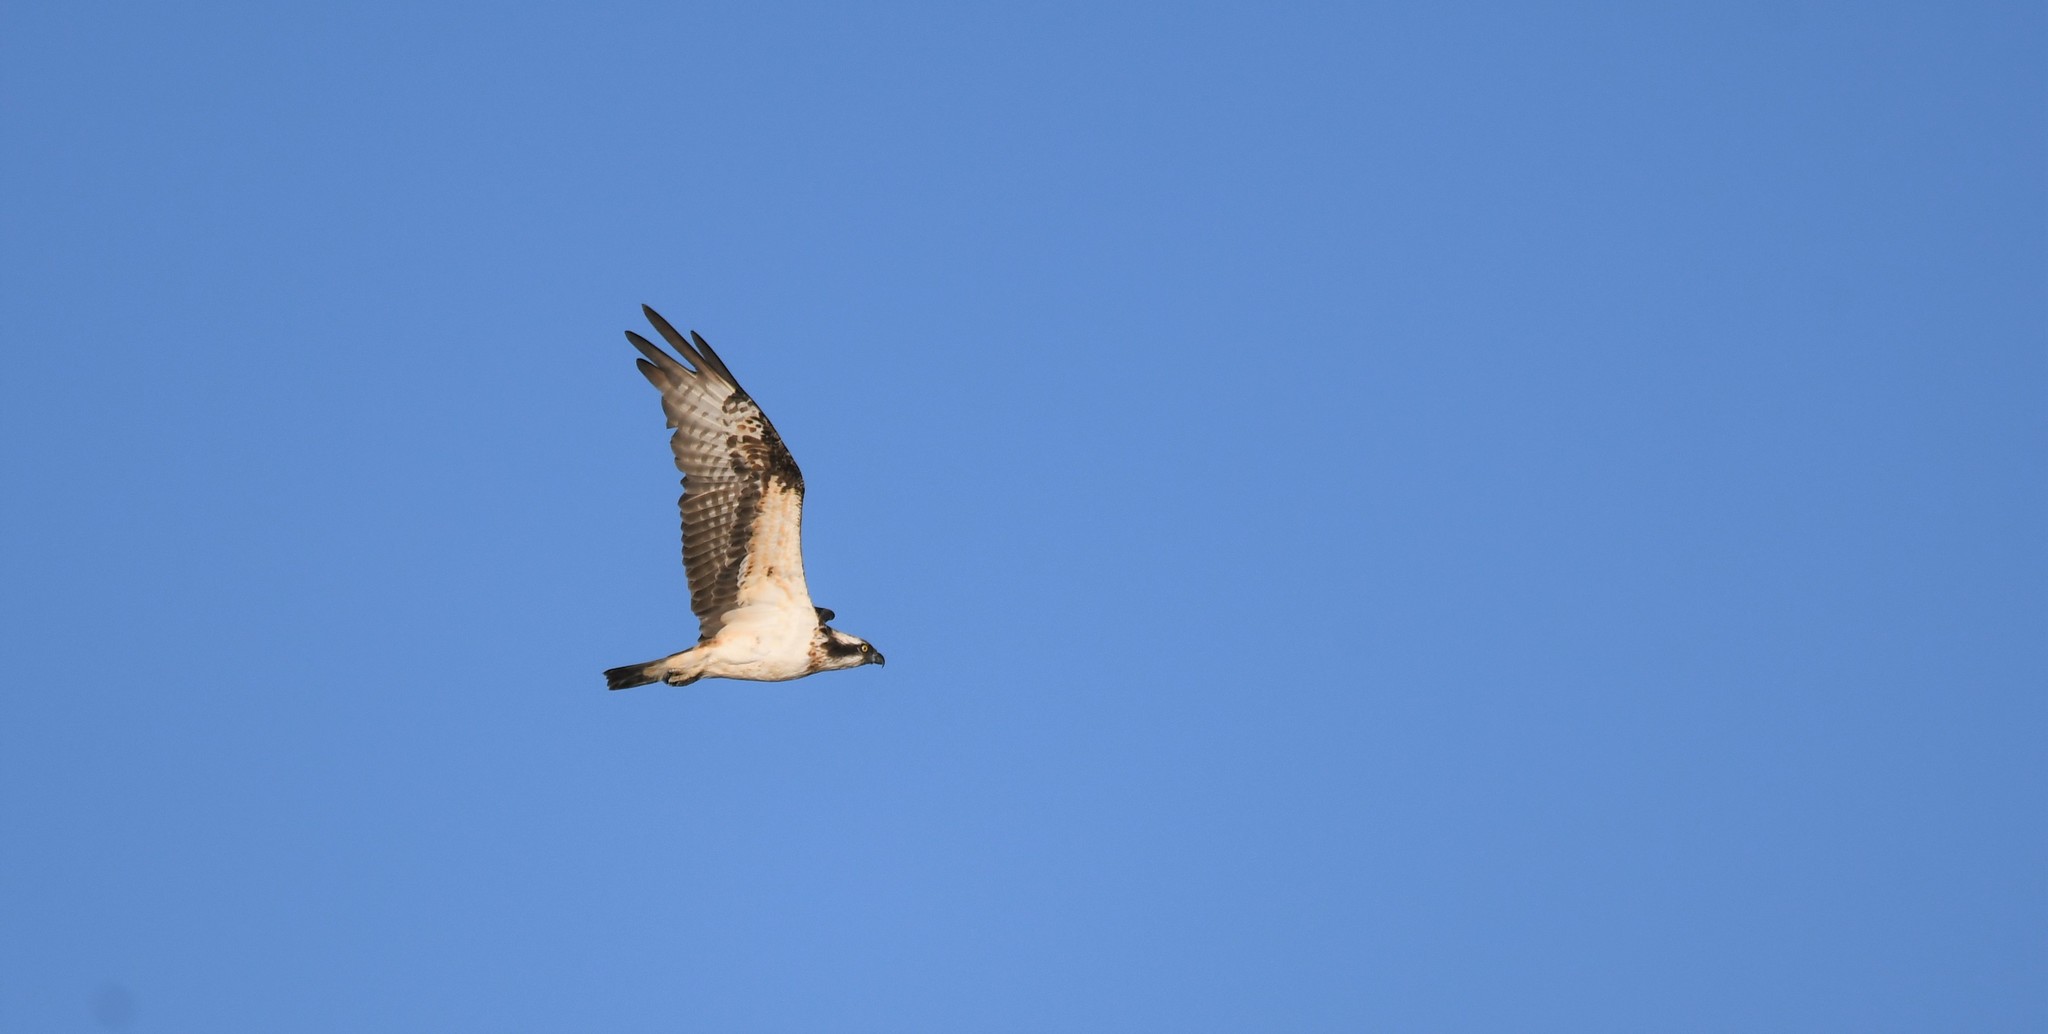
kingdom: Animalia
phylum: Chordata
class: Aves
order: Accipitriformes
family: Pandionidae
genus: Pandion
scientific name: Pandion haliaetus
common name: Osprey
